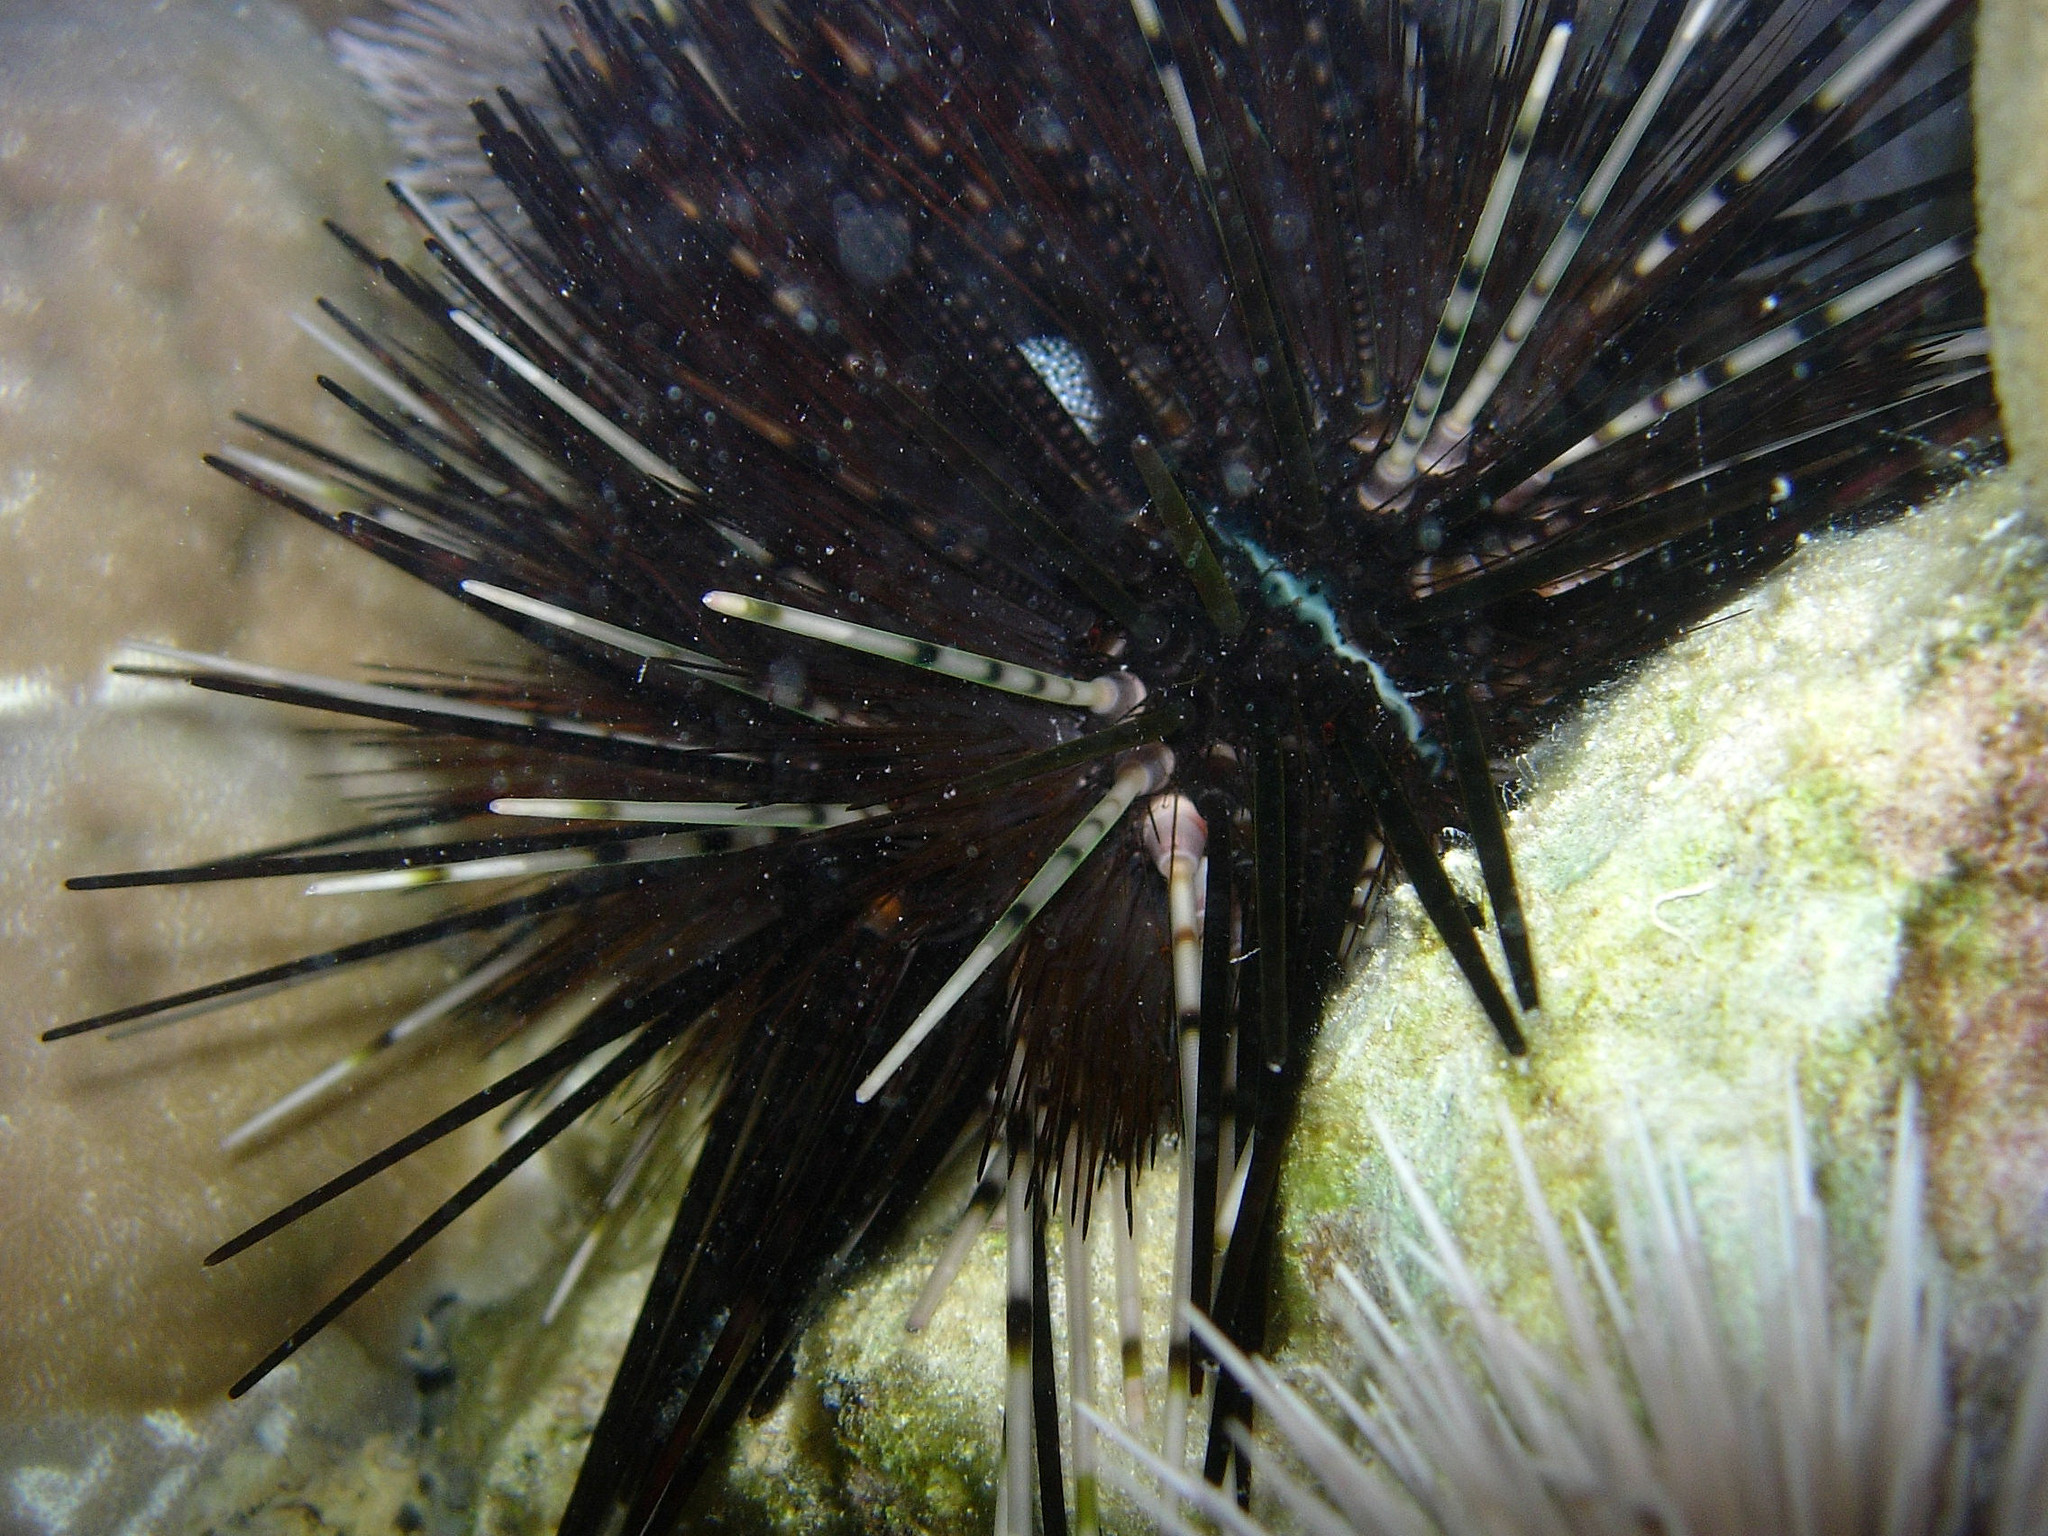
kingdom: Animalia
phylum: Echinodermata
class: Echinoidea
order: Diadematoida
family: Diadematidae
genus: Echinothrix
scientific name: Echinothrix calamaris
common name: Banded sea urchin
